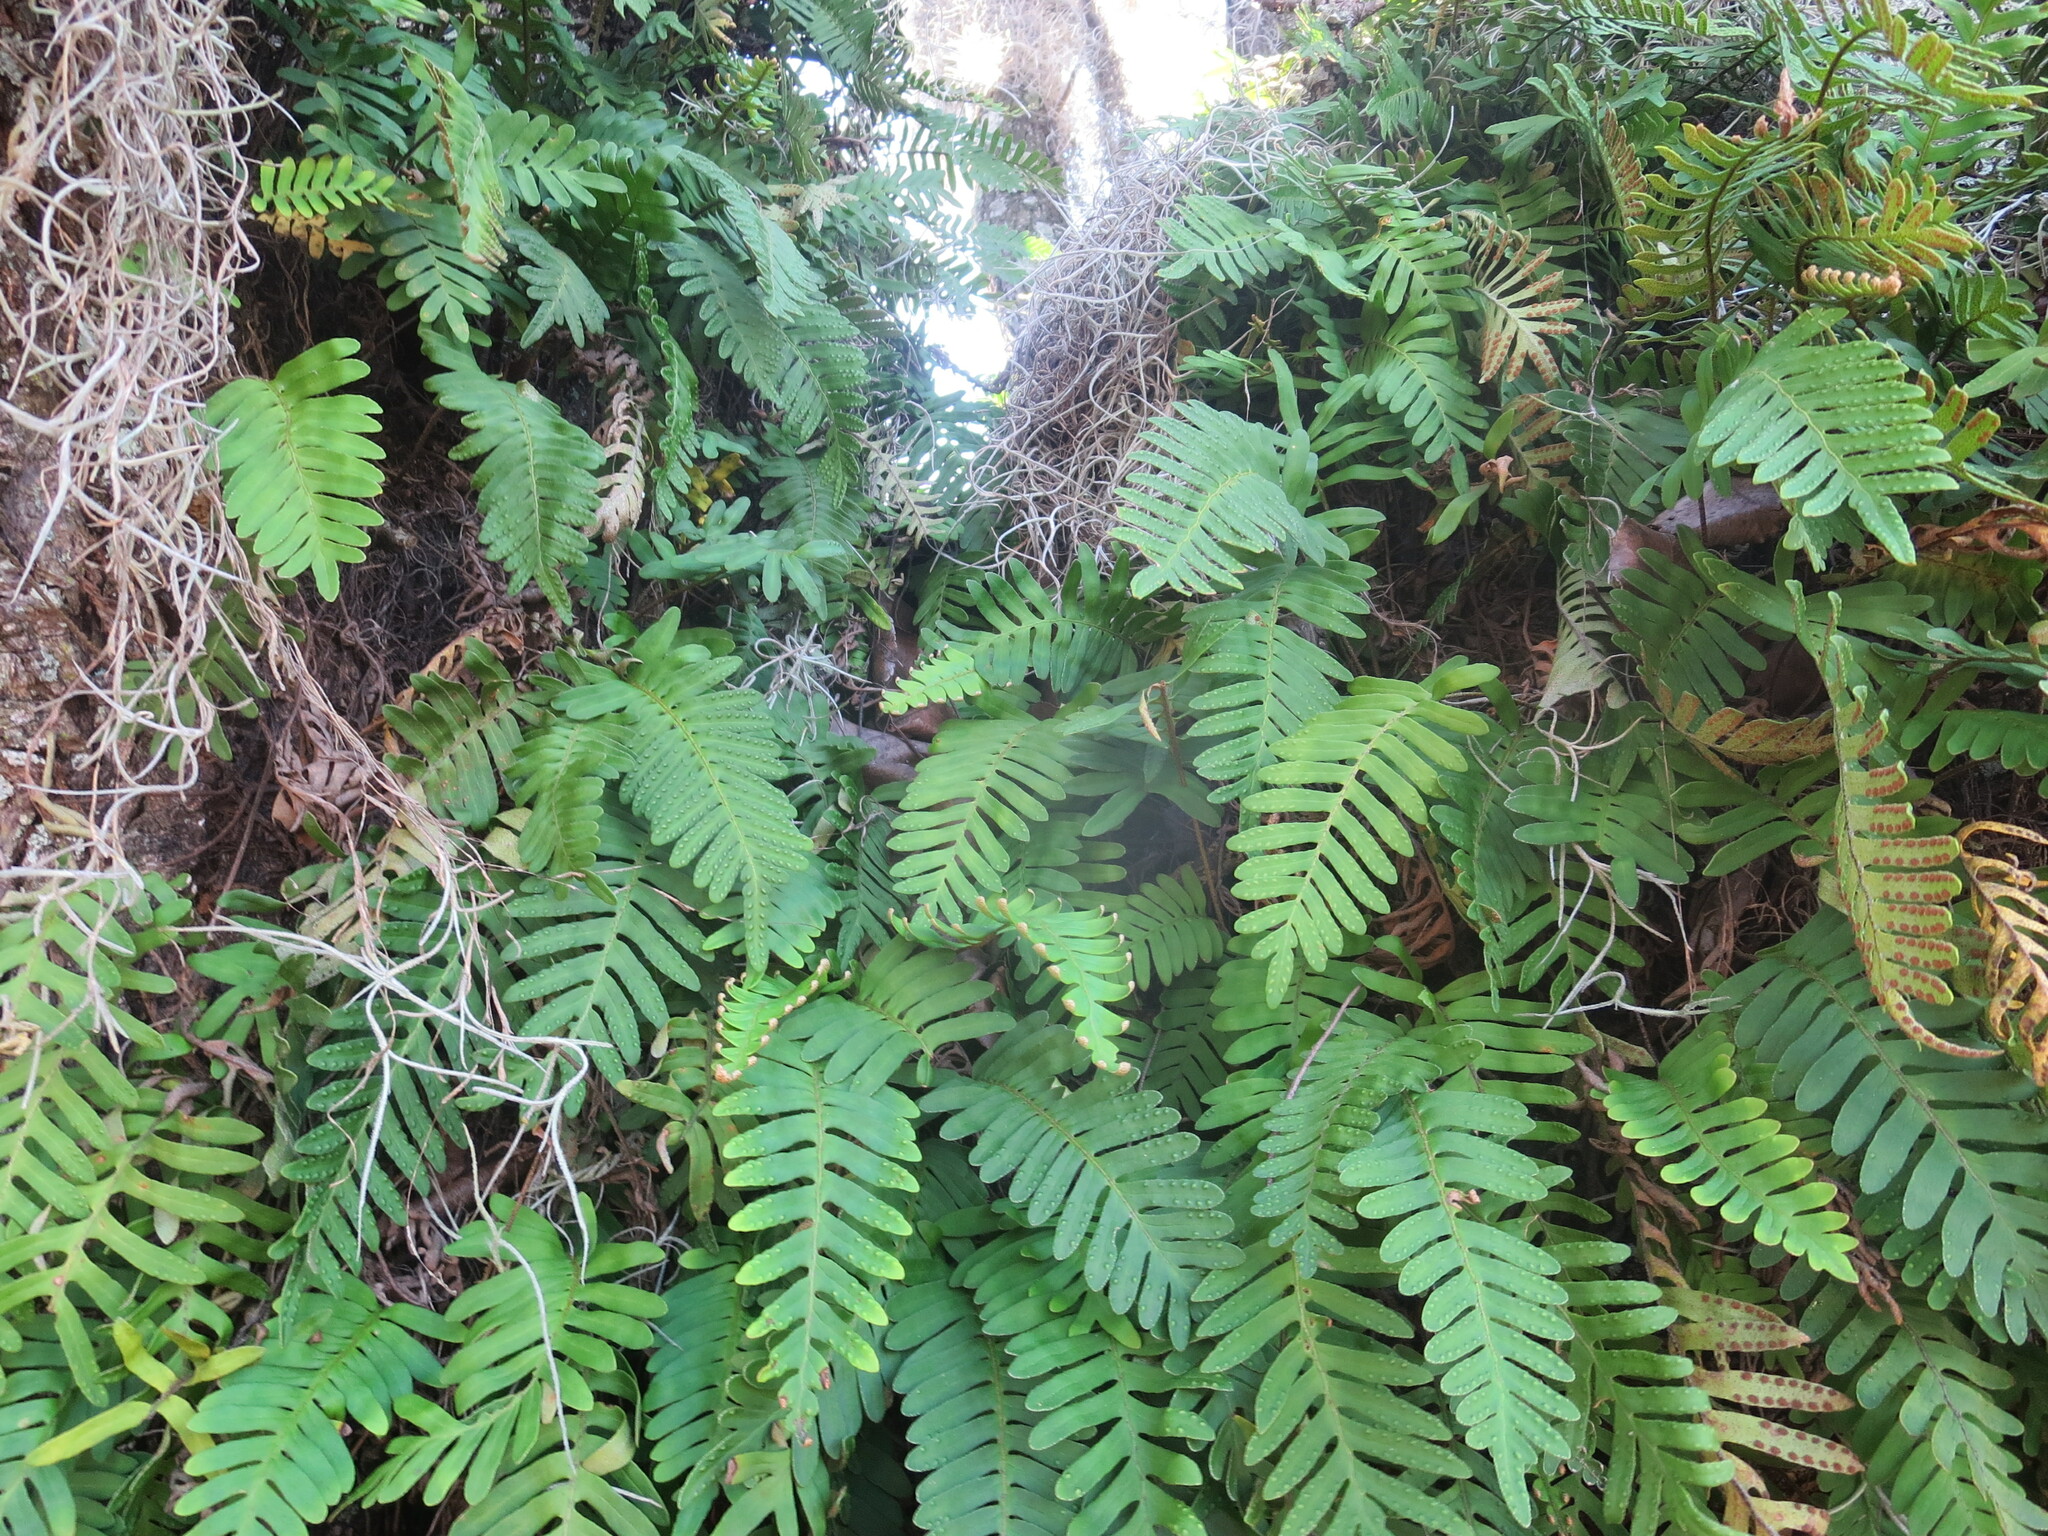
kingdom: Plantae
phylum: Tracheophyta
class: Polypodiopsida
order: Polypodiales
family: Polypodiaceae
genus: Pleopeltis
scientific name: Pleopeltis michauxiana
